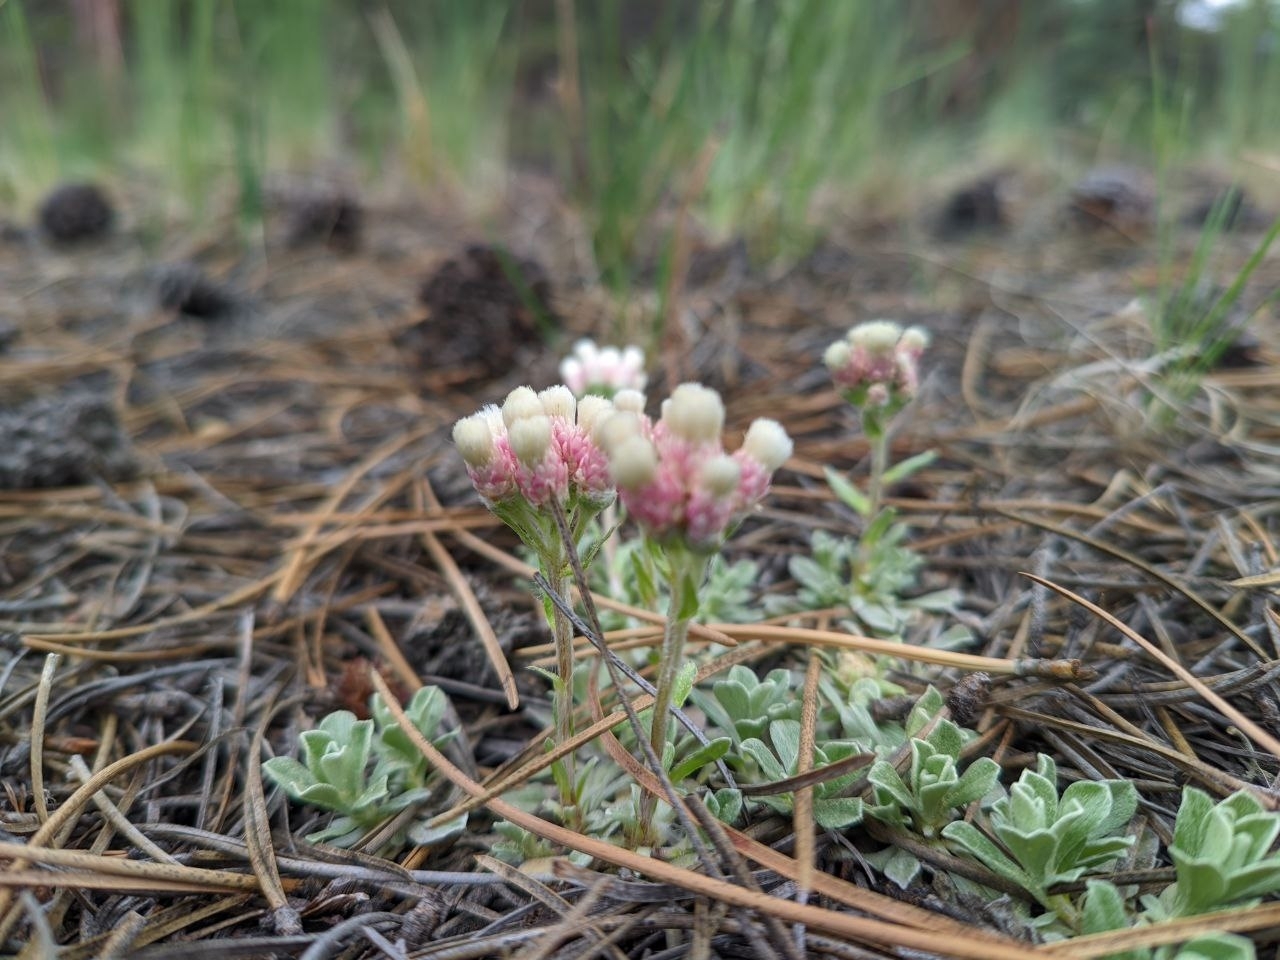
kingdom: Plantae
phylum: Tracheophyta
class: Magnoliopsida
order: Asterales
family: Asteraceae
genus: Antennaria
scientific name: Antennaria rosea
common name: Rosy pussytoes
